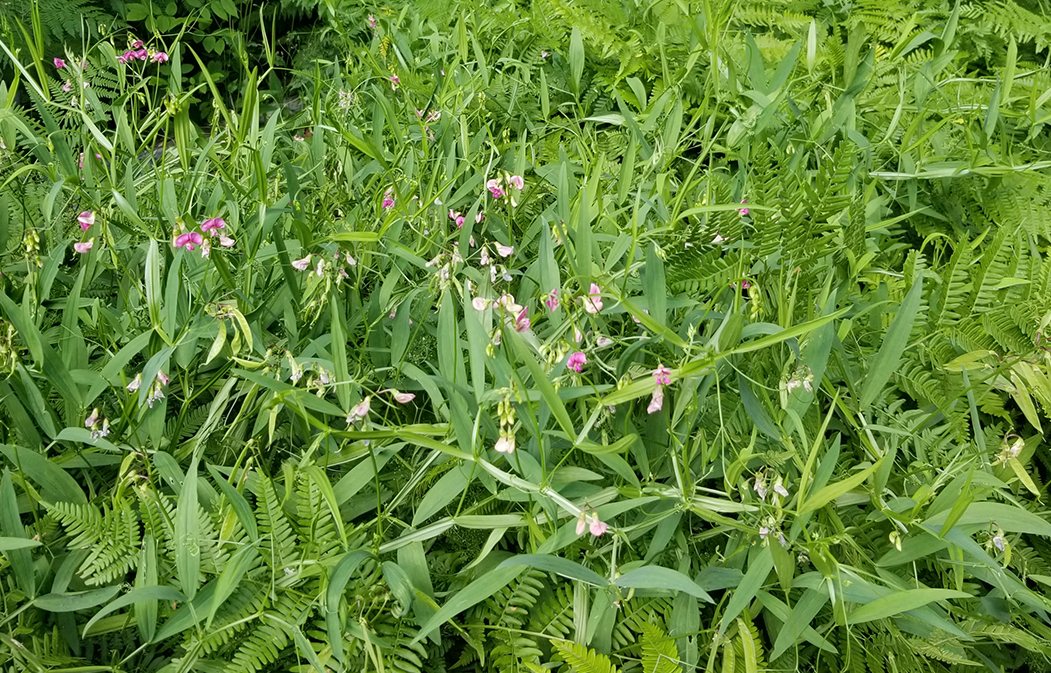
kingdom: Plantae
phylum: Tracheophyta
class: Polypodiopsida
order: Polypodiales
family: Dennstaedtiaceae
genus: Pteridium
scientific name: Pteridium aquilinum
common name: Bracken
